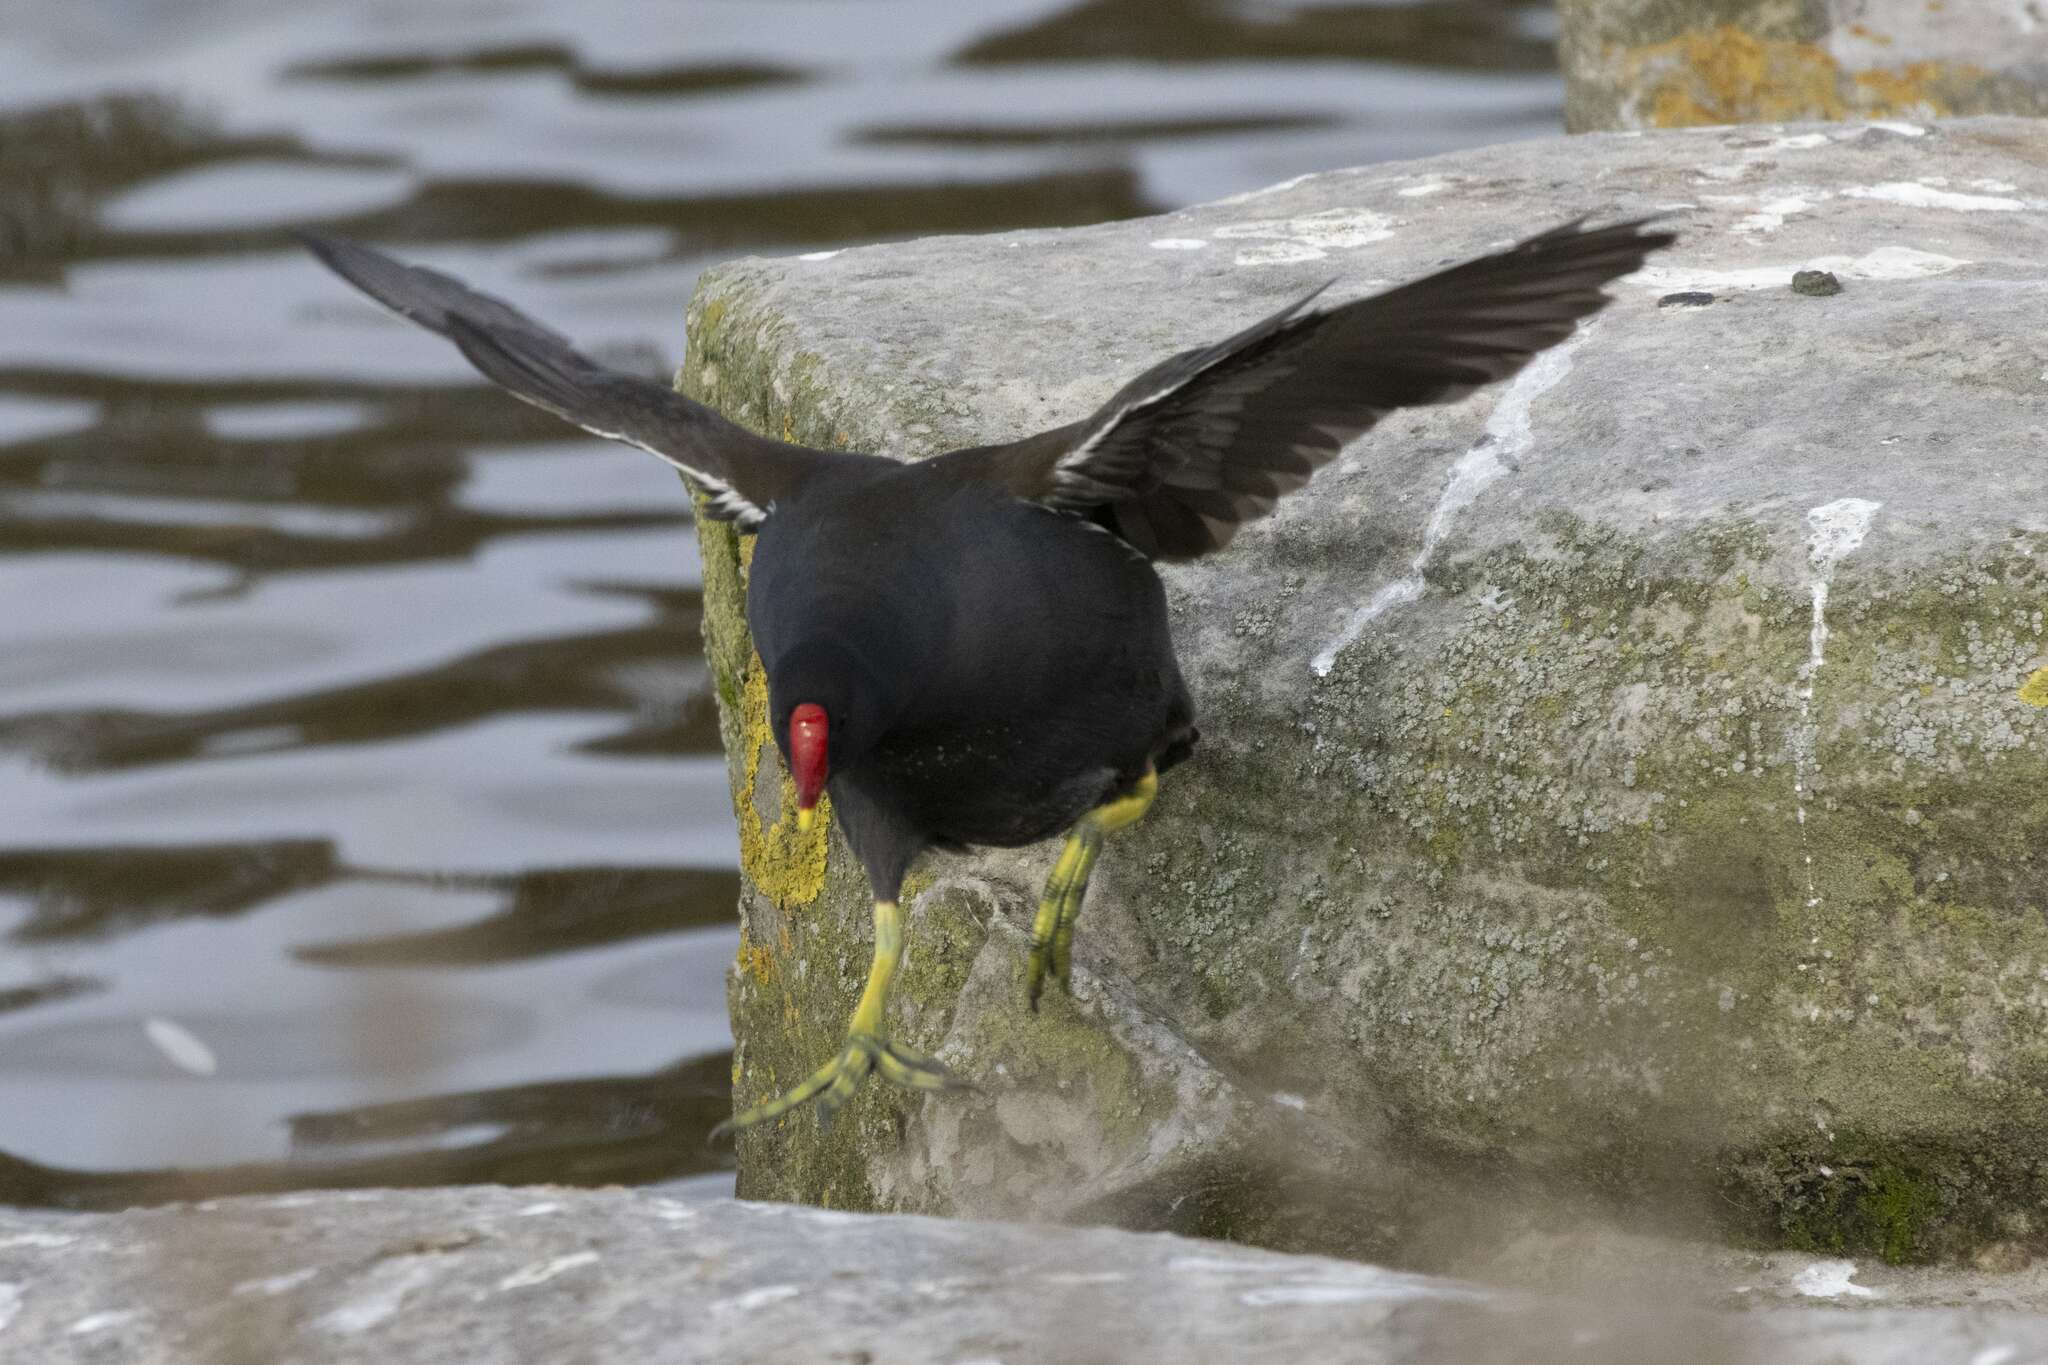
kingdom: Animalia
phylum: Chordata
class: Aves
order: Gruiformes
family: Rallidae
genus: Gallinula
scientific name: Gallinula chloropus
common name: Common moorhen
